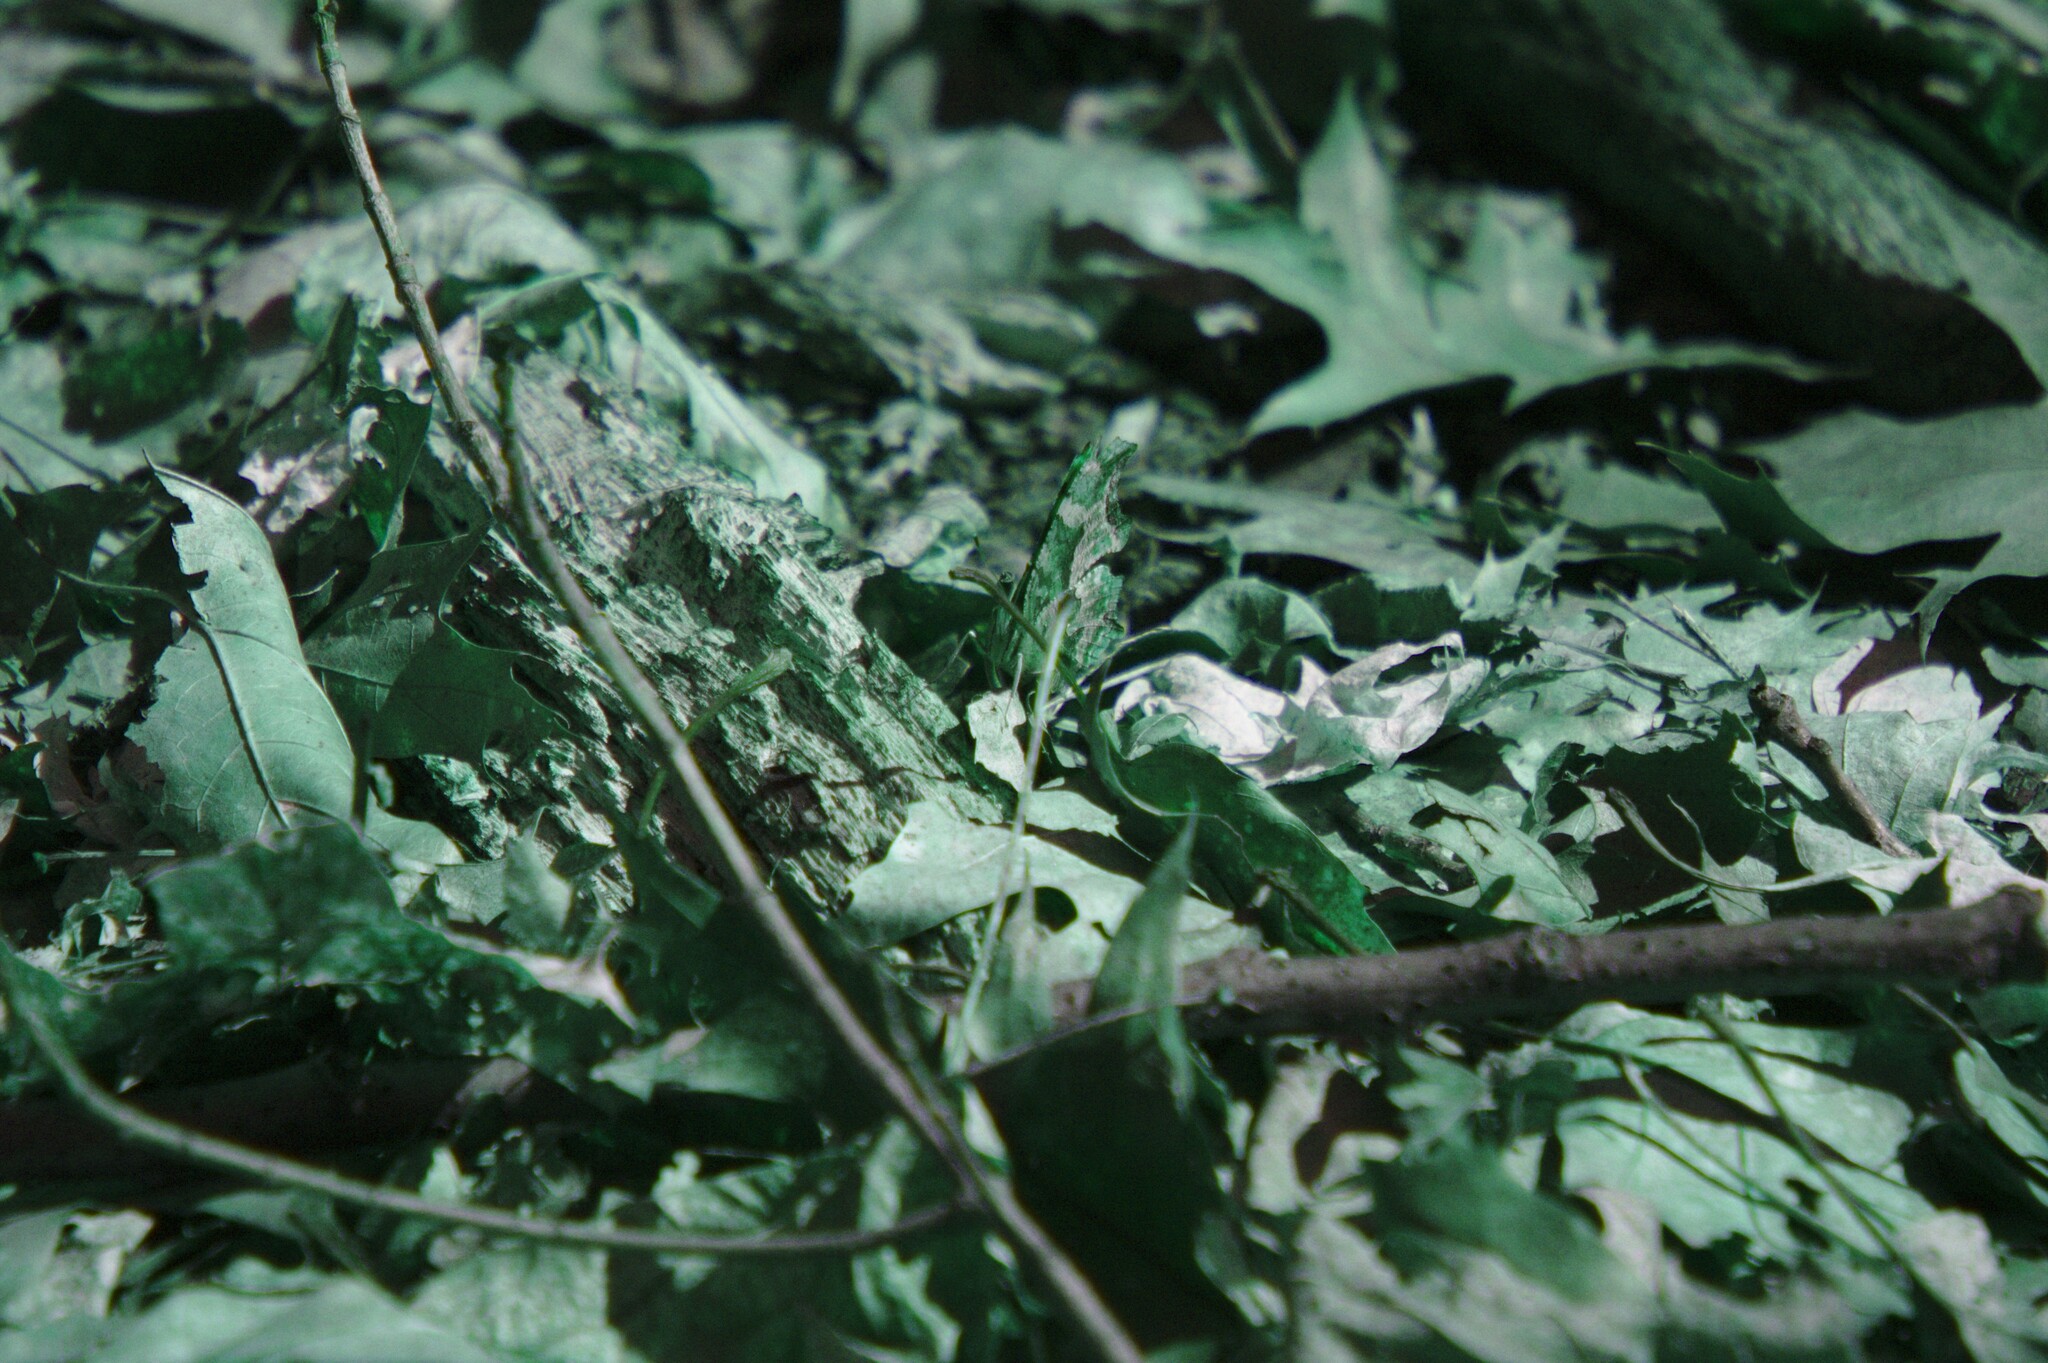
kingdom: Animalia
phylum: Arthropoda
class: Insecta
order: Lepidoptera
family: Nymphalidae
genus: Polygonia
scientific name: Polygonia comma
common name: Eastern comma
